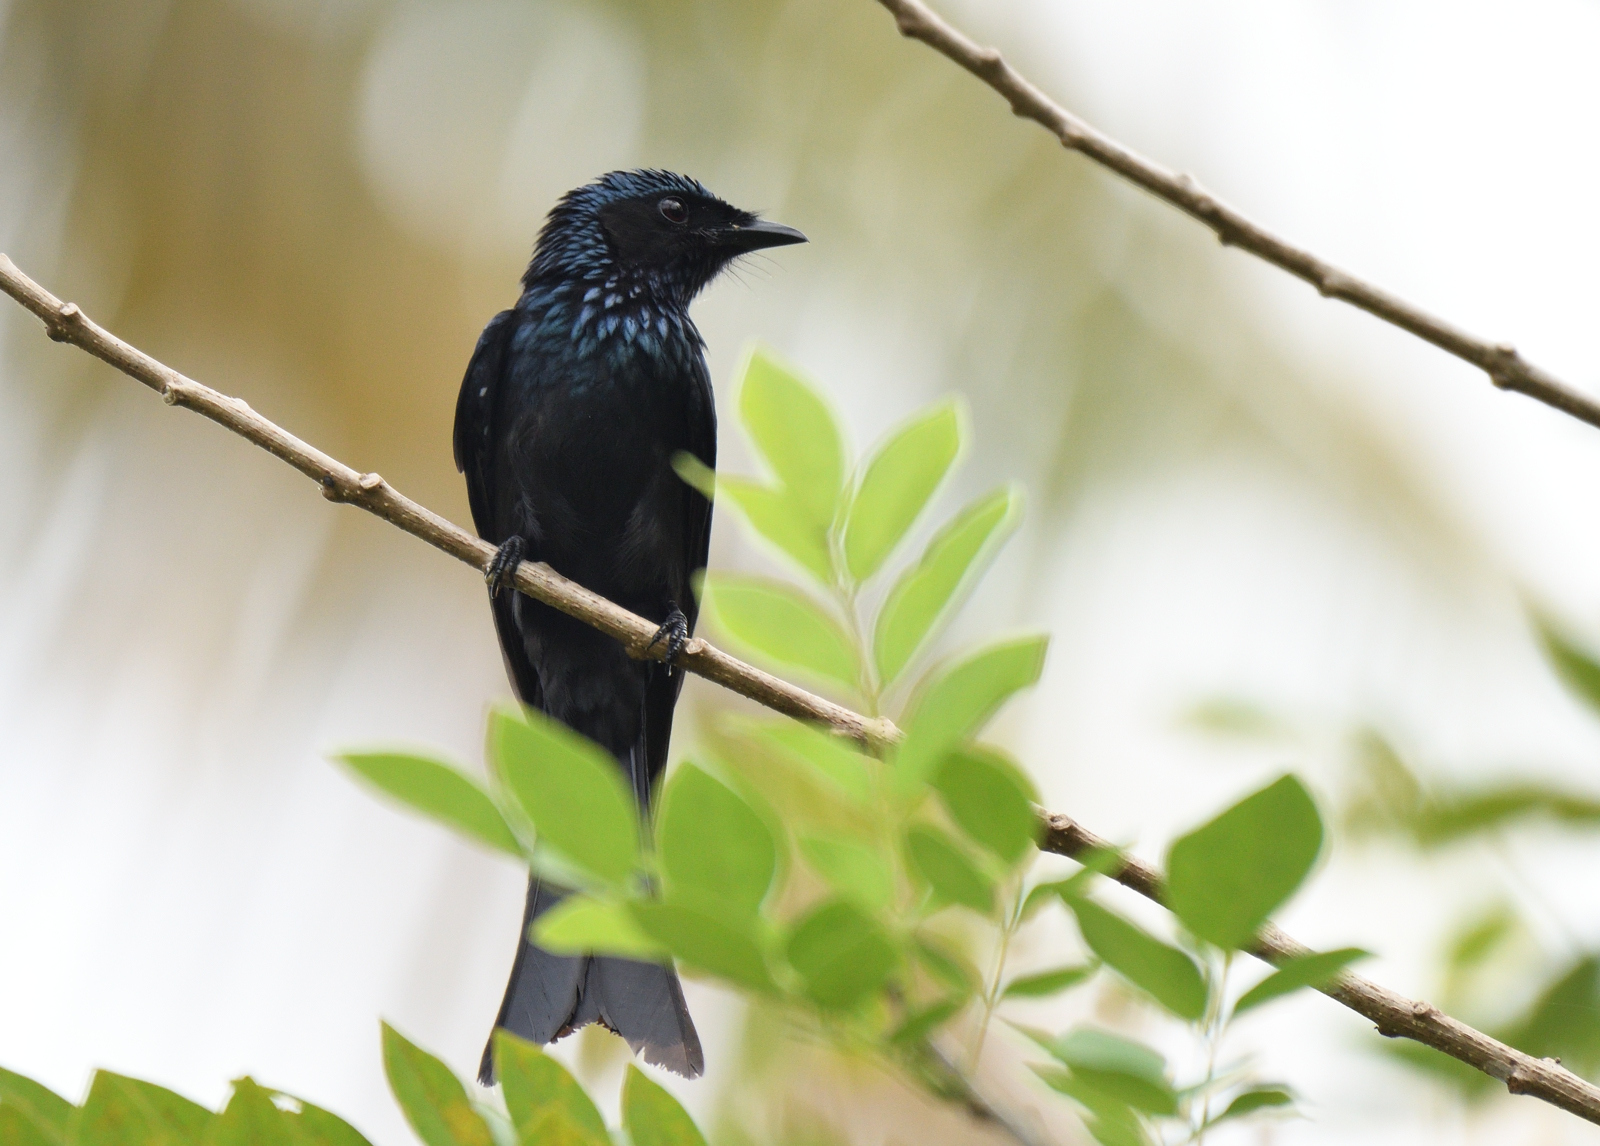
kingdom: Animalia
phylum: Chordata
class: Aves
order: Passeriformes
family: Dicruridae
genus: Dicrurus
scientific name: Dicrurus macrocercus
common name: Black drongo
